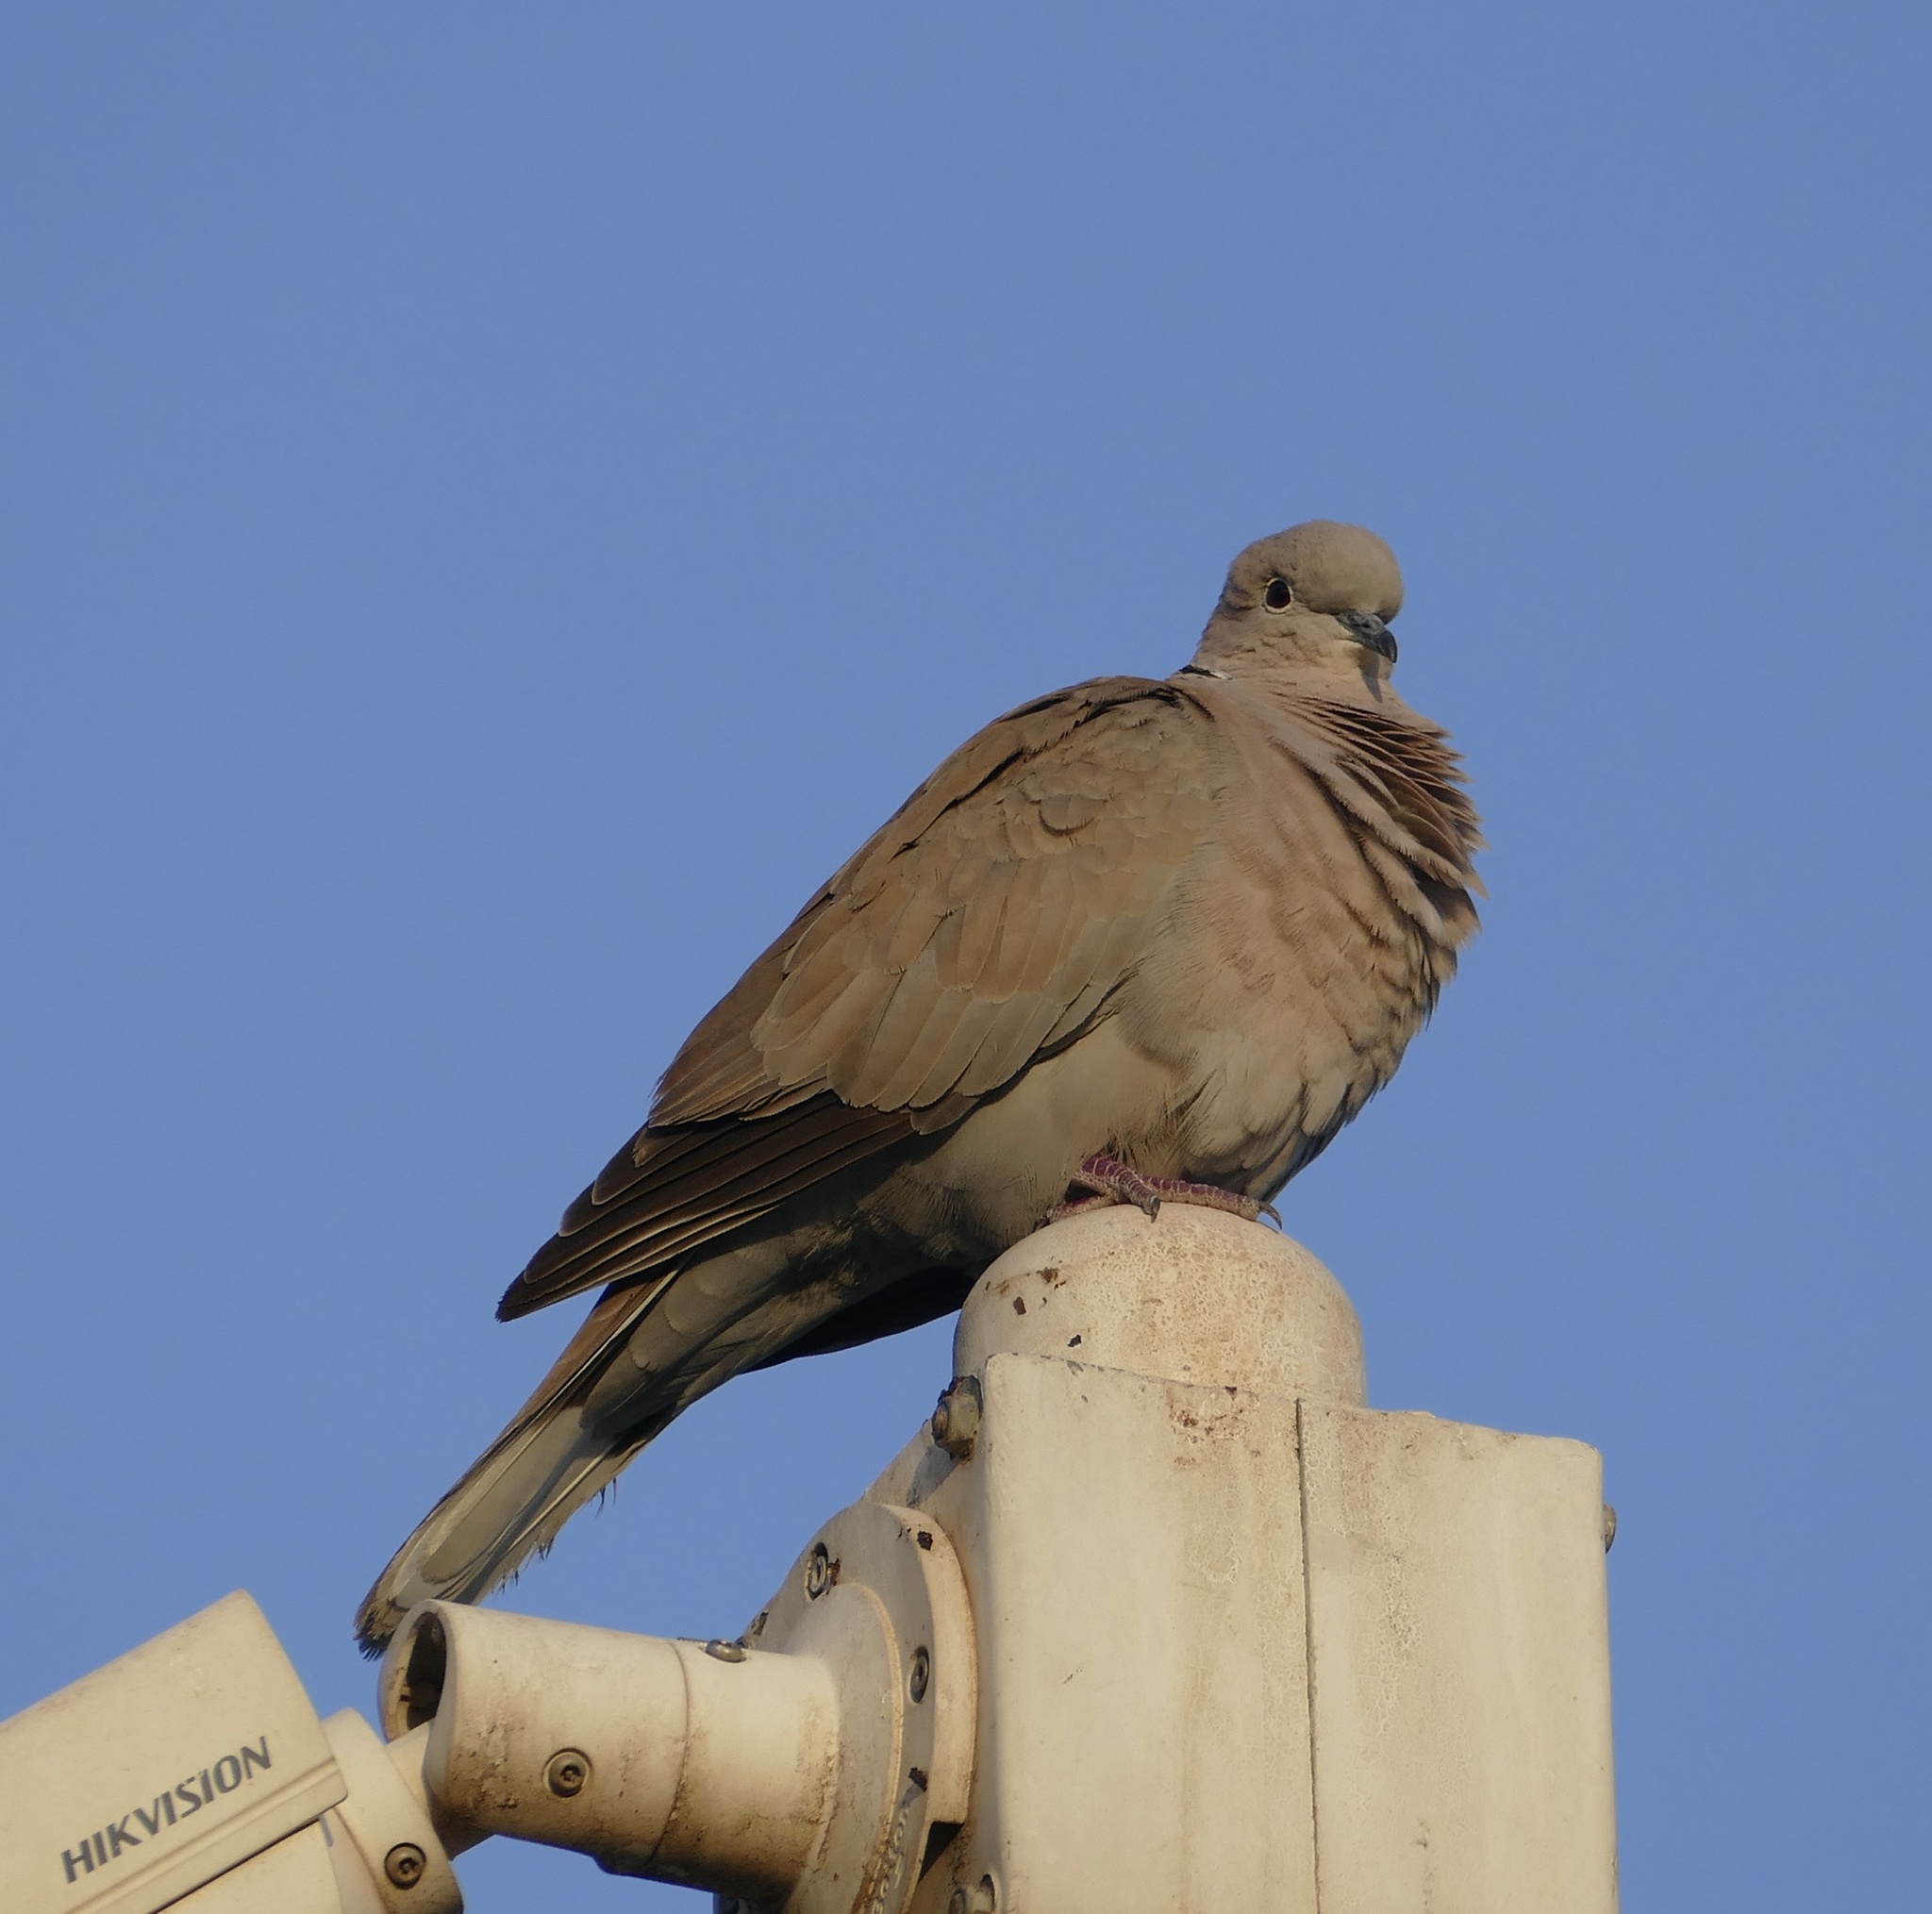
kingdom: Animalia
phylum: Chordata
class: Aves
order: Columbiformes
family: Columbidae
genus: Streptopelia
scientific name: Streptopelia decaocto
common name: Eurasian collared dove
